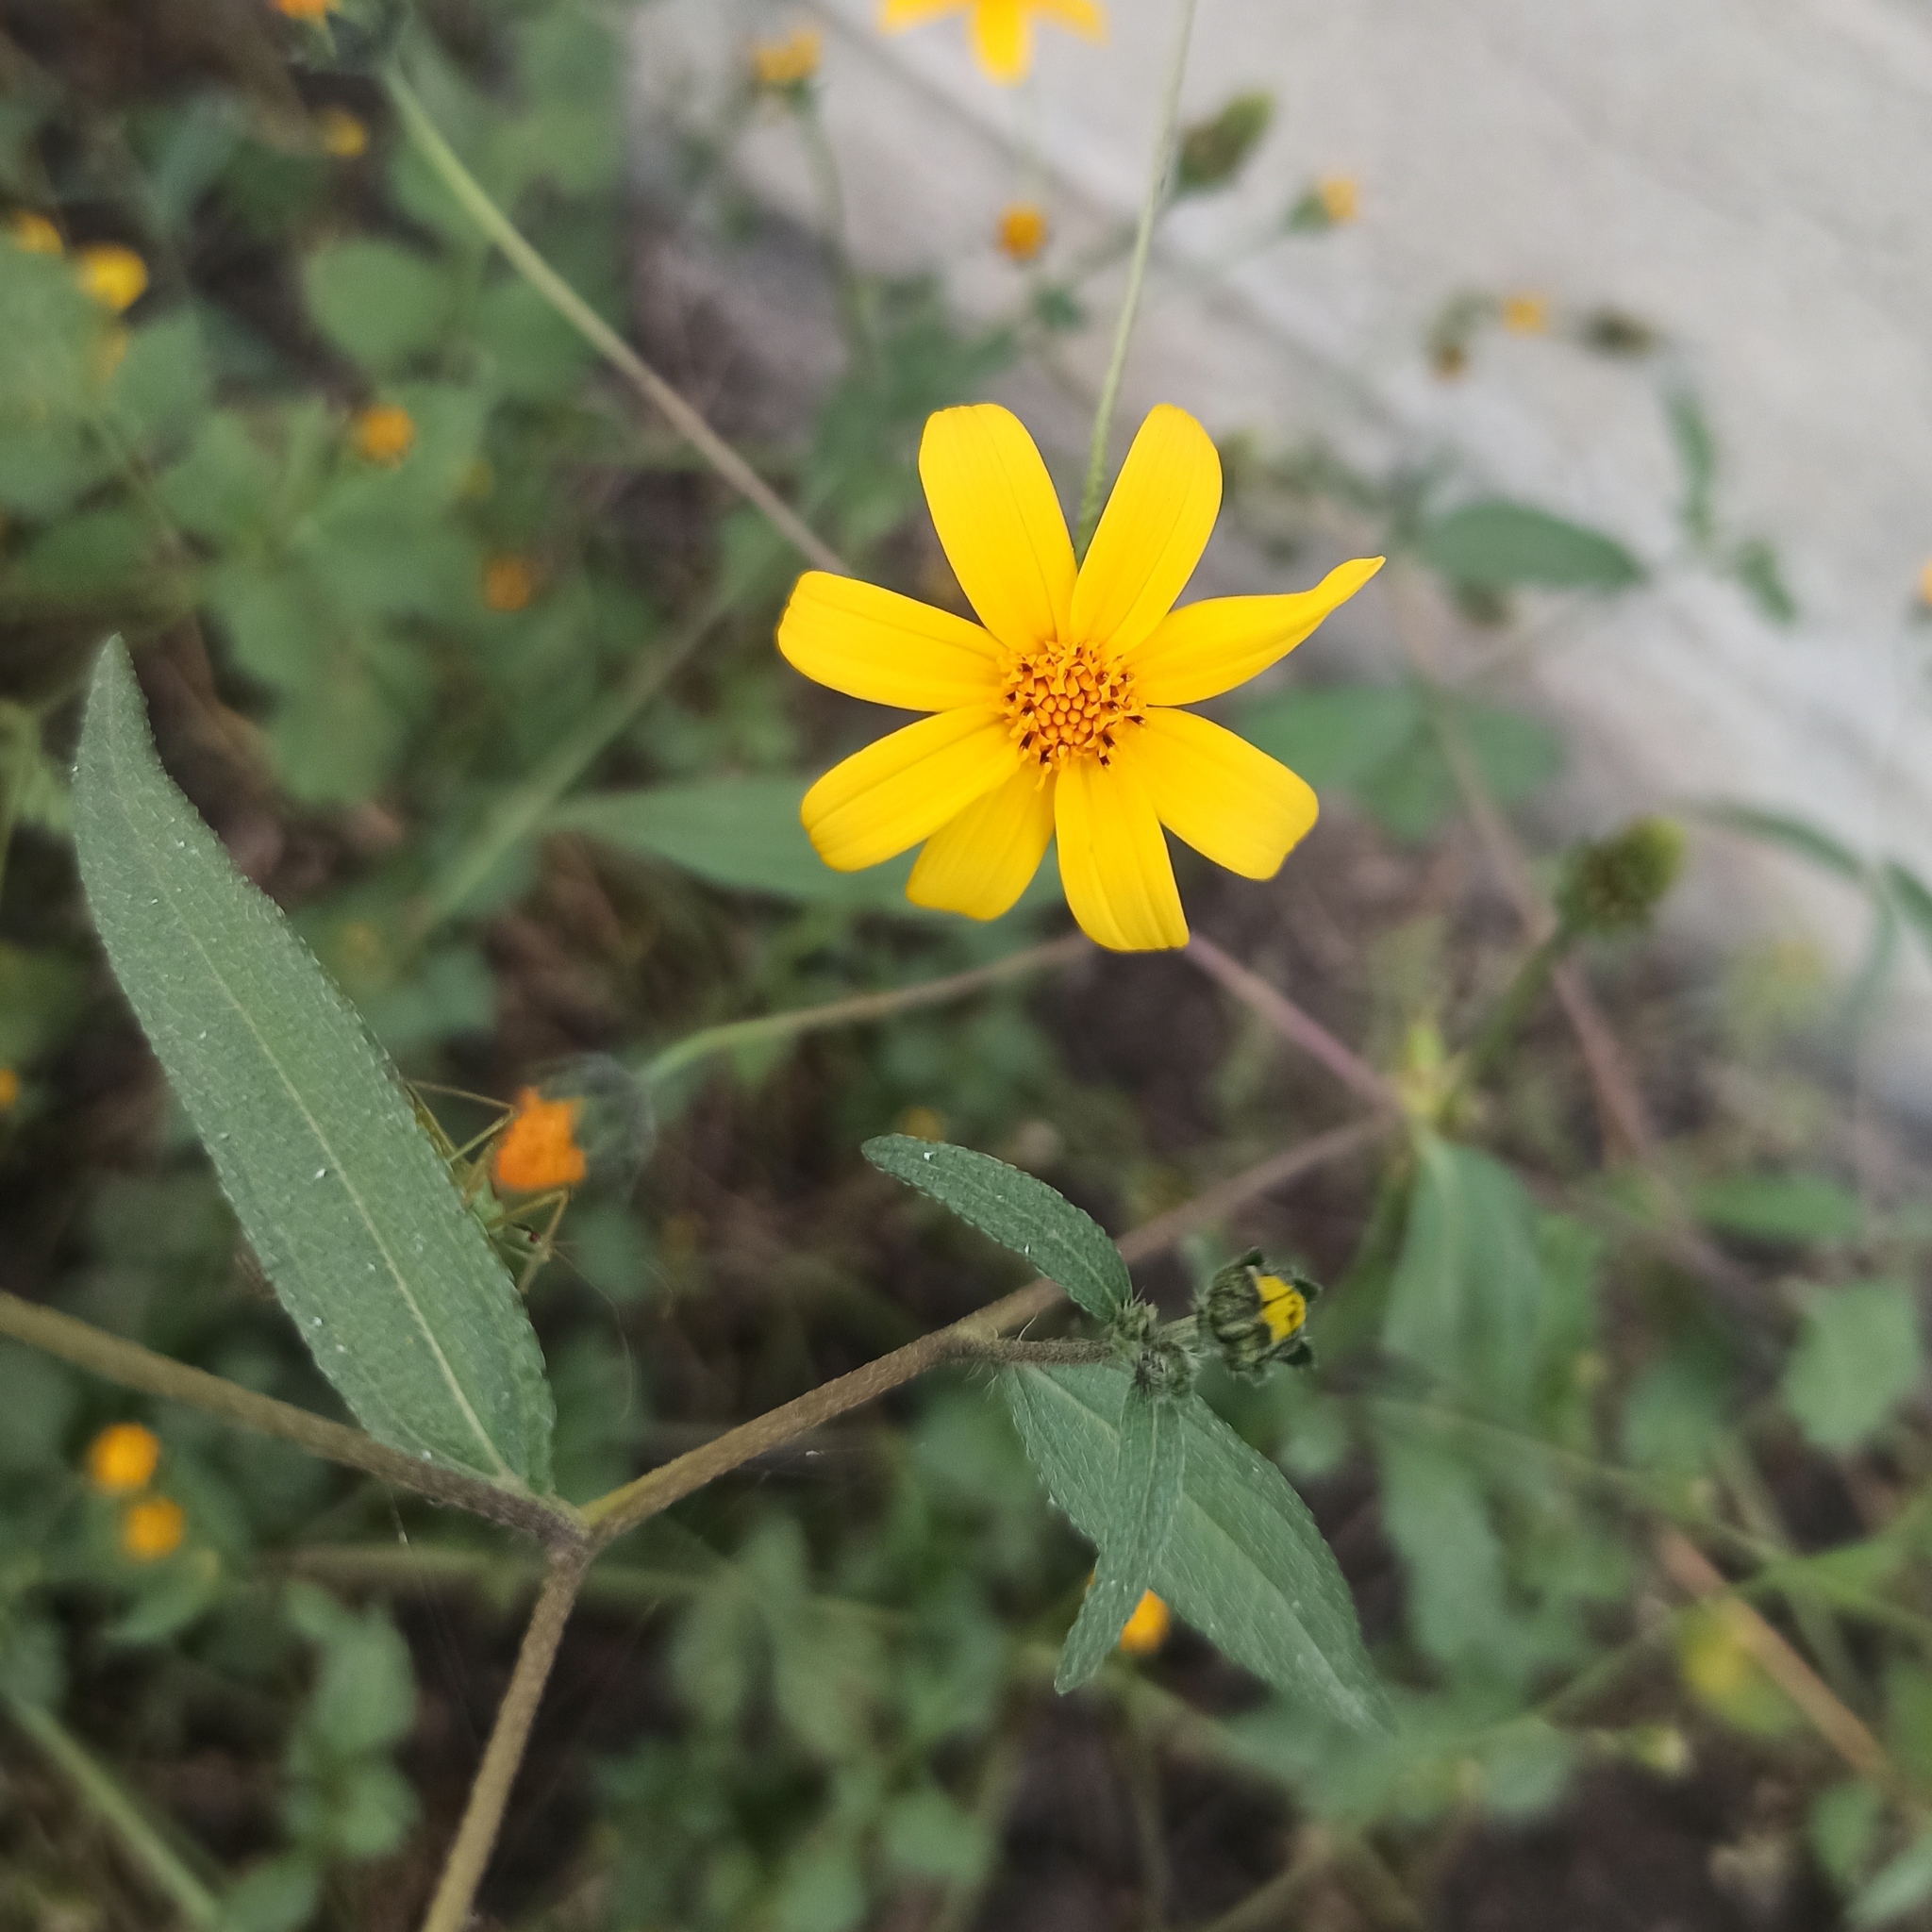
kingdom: Plantae
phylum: Tracheophyta
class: Magnoliopsida
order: Asterales
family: Asteraceae
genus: Aldama
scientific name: Aldama dentata
